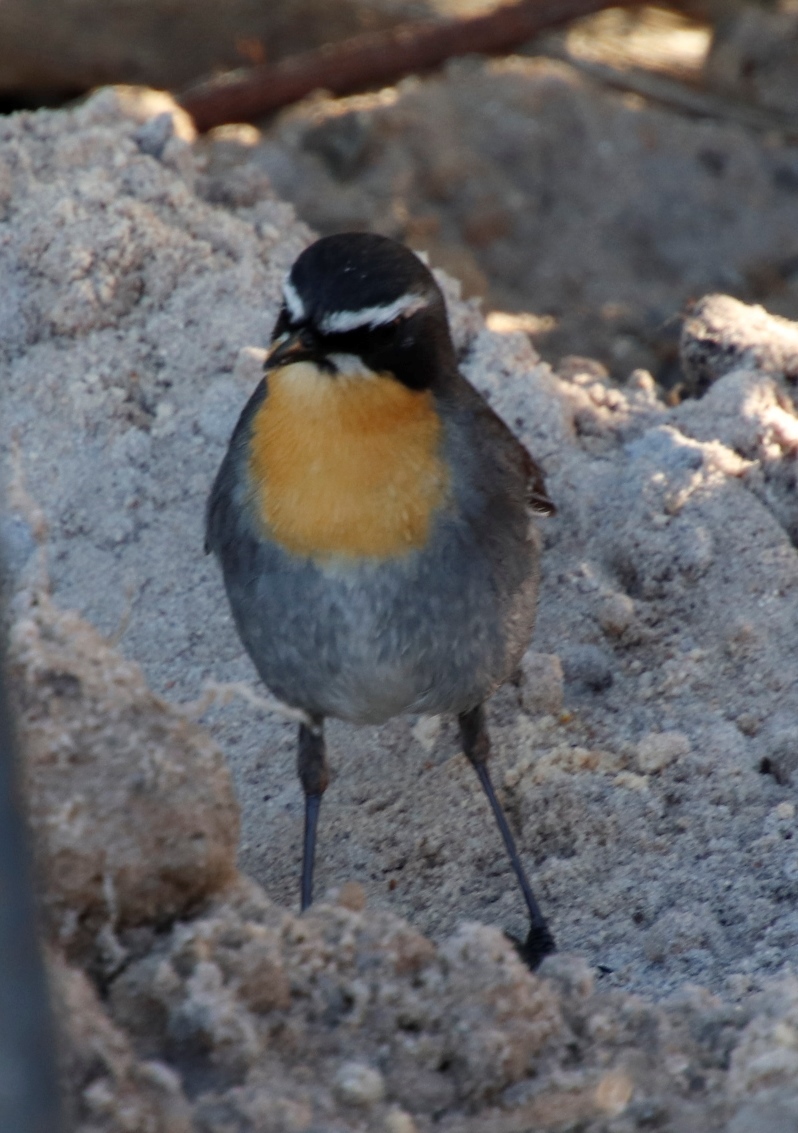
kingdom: Animalia
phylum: Chordata
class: Aves
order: Passeriformes
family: Muscicapidae
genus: Cossypha
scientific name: Cossypha caffra
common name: Cape robin-chat
